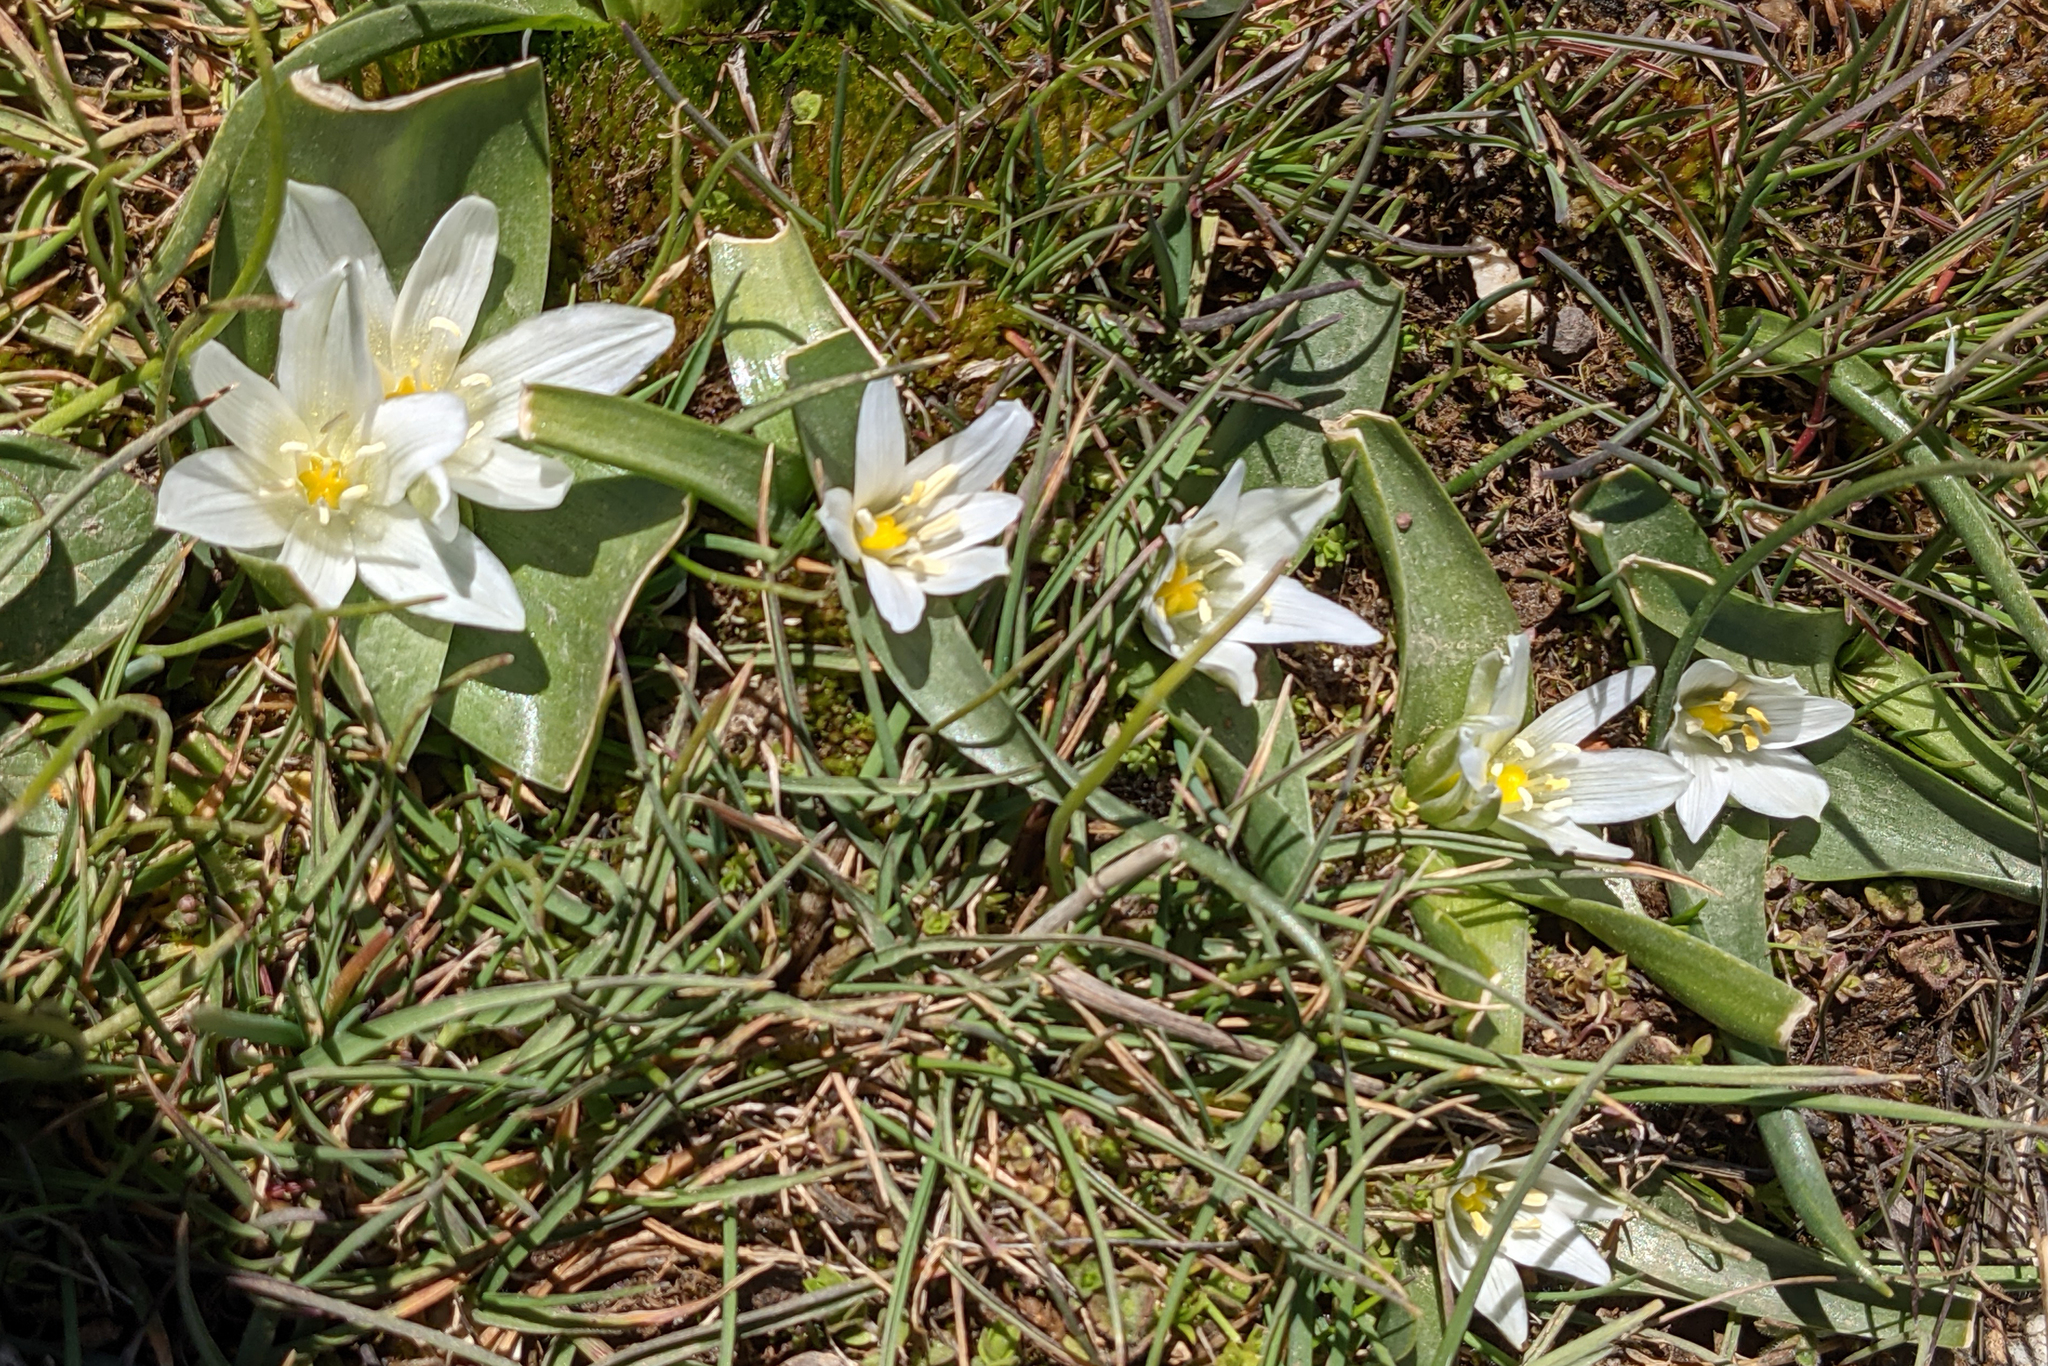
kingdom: Plantae
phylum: Tracheophyta
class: Liliopsida
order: Asparagales
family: Asparagaceae
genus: Ornithogalum
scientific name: Ornithogalum lanceolatum
